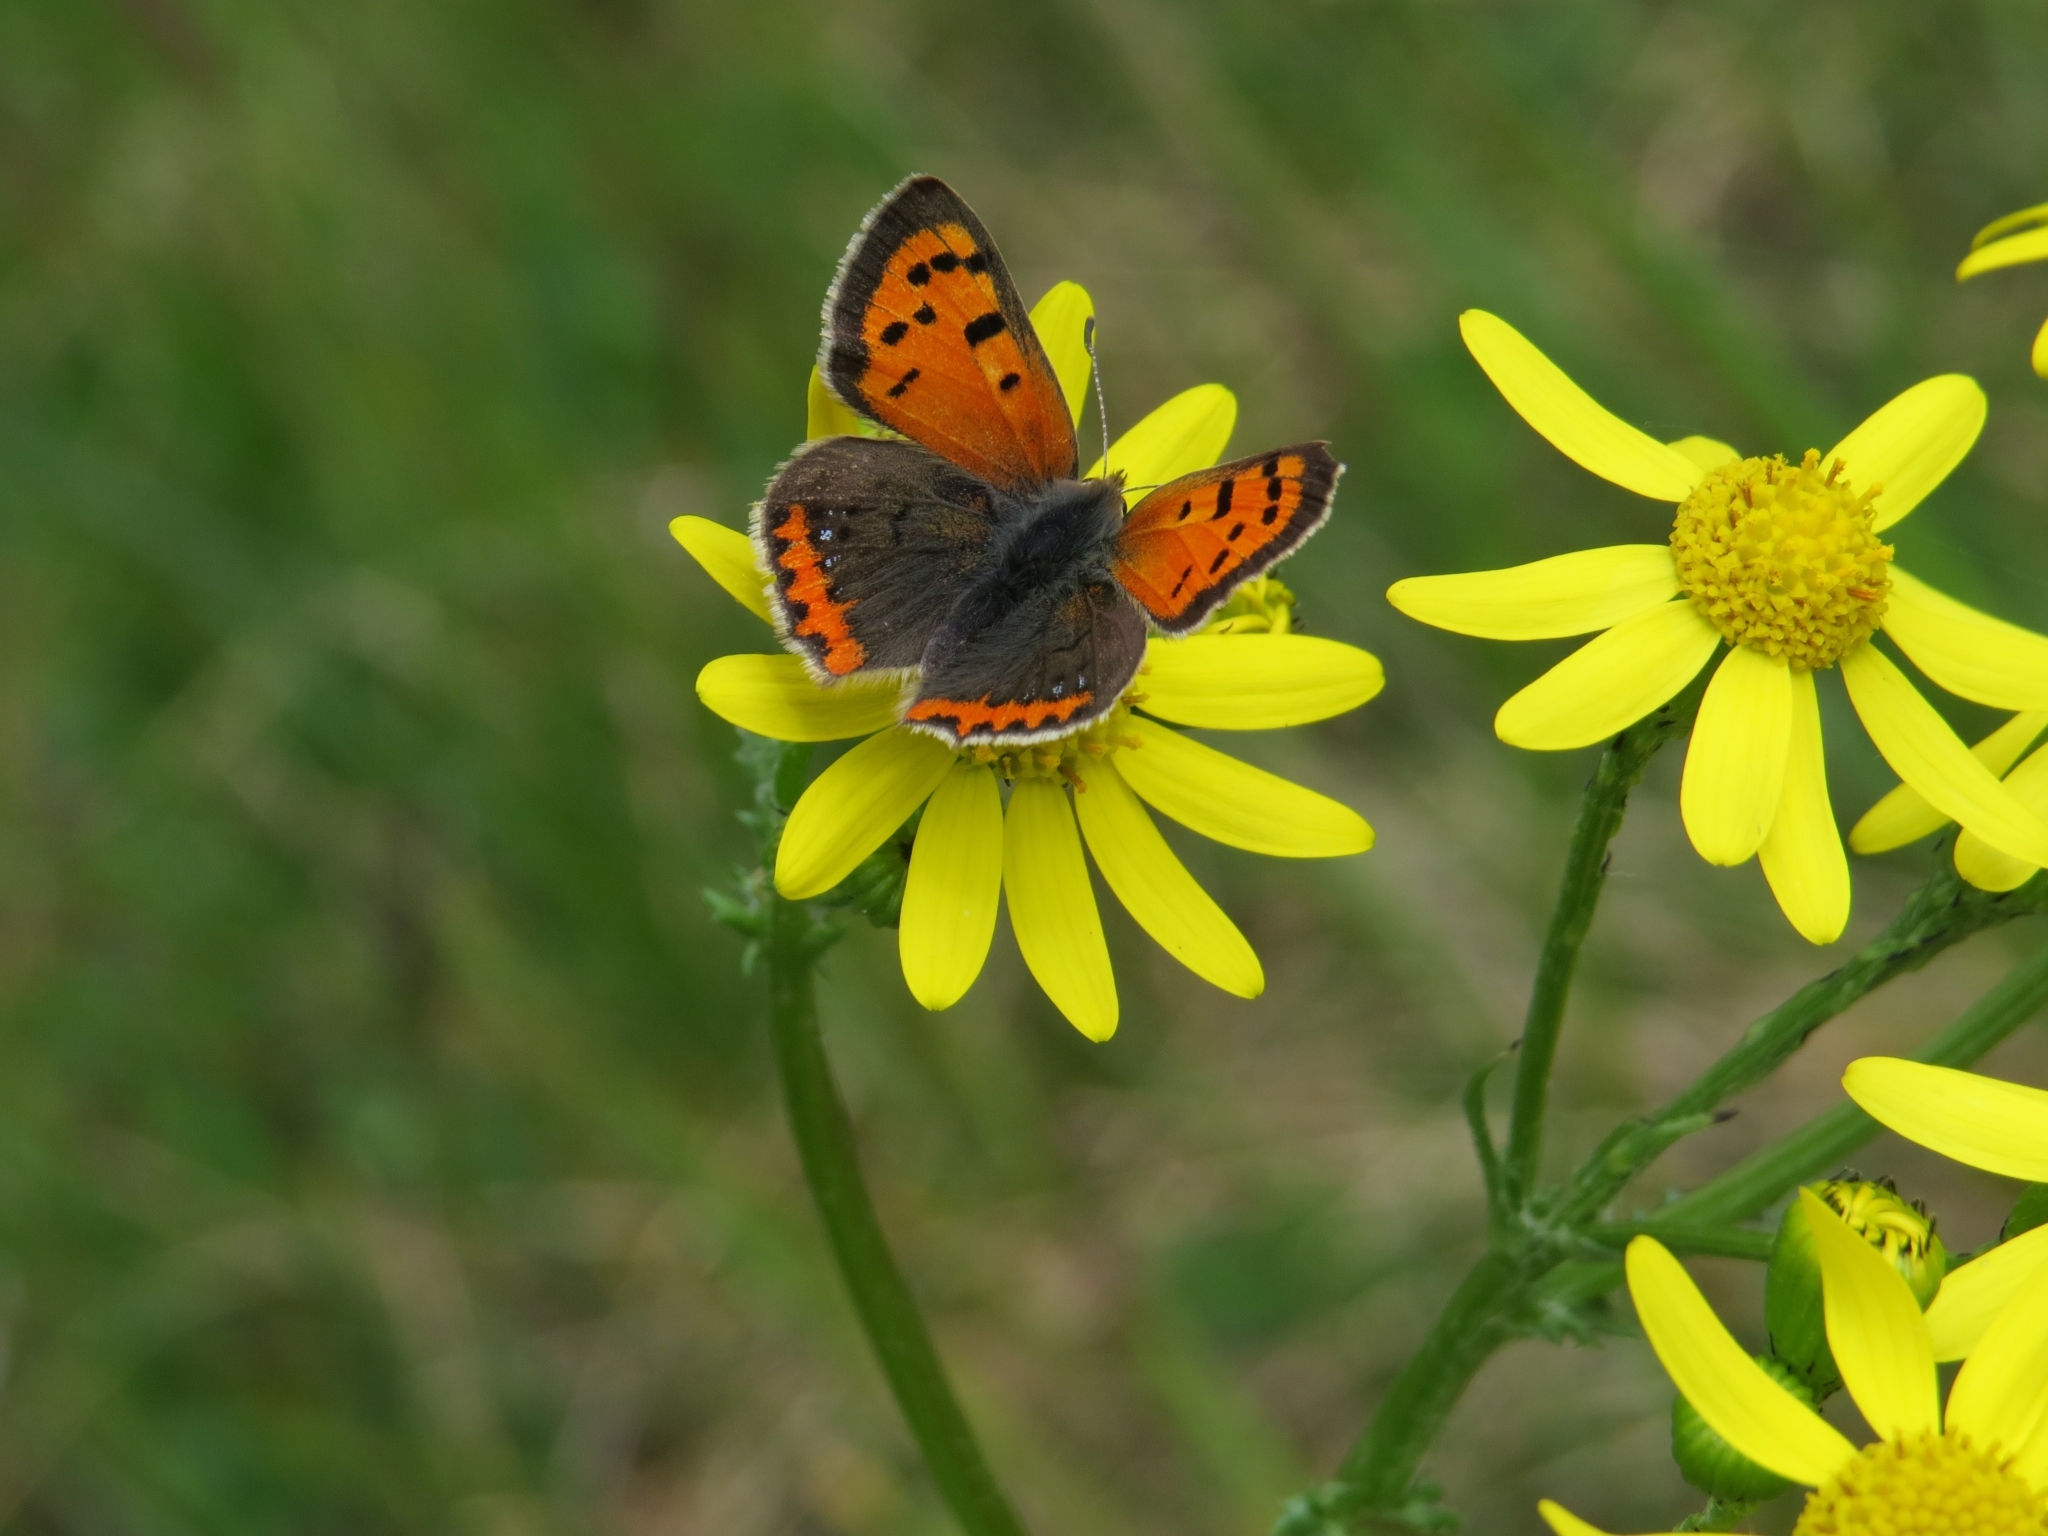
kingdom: Animalia
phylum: Arthropoda
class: Insecta
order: Lepidoptera
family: Lycaenidae
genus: Lycaena
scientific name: Lycaena phlaeas
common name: Small copper
